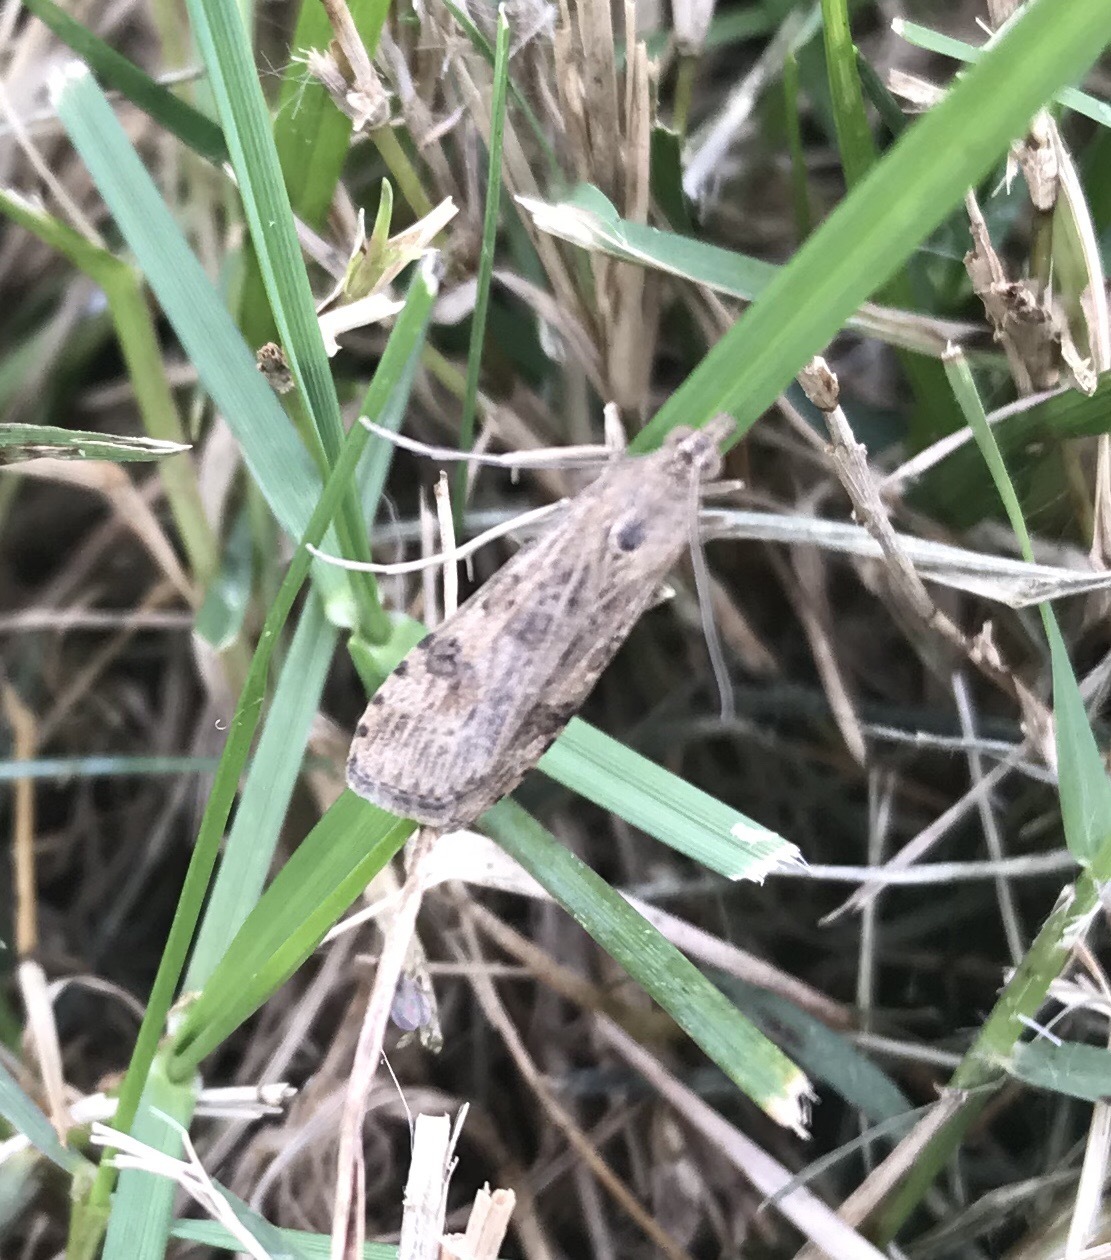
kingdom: Animalia
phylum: Arthropoda
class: Insecta
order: Lepidoptera
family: Crambidae
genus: Nomophila
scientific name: Nomophila nearctica
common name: American rush veneer
